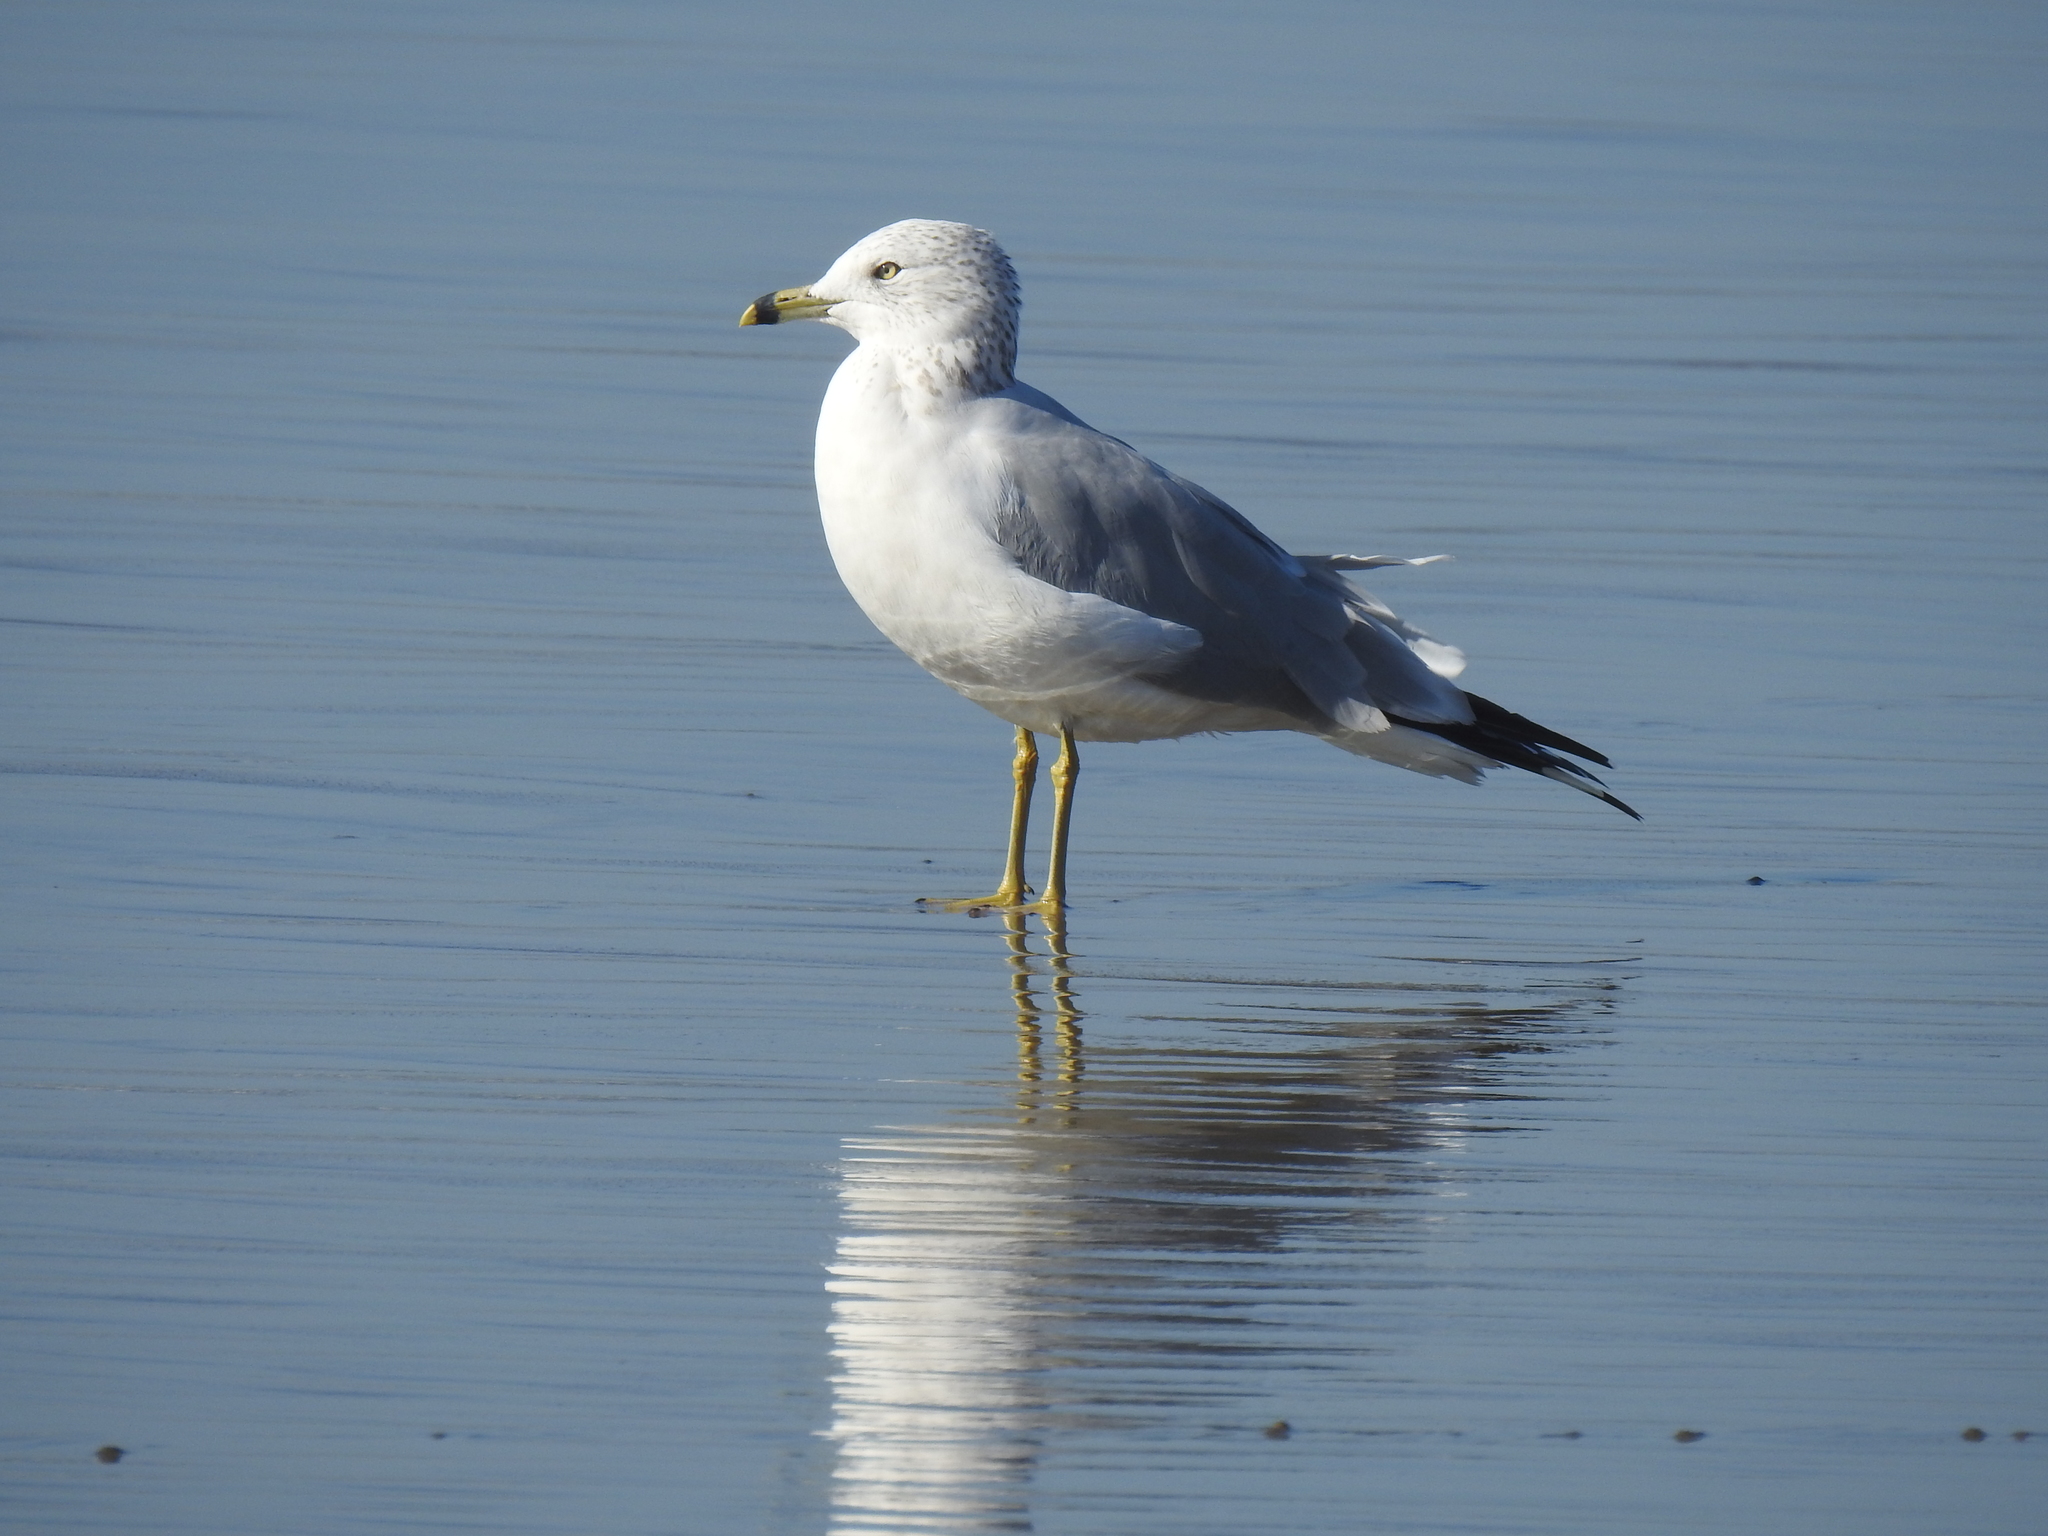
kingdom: Animalia
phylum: Chordata
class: Aves
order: Charadriiformes
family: Laridae
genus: Larus
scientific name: Larus delawarensis
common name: Ring-billed gull
